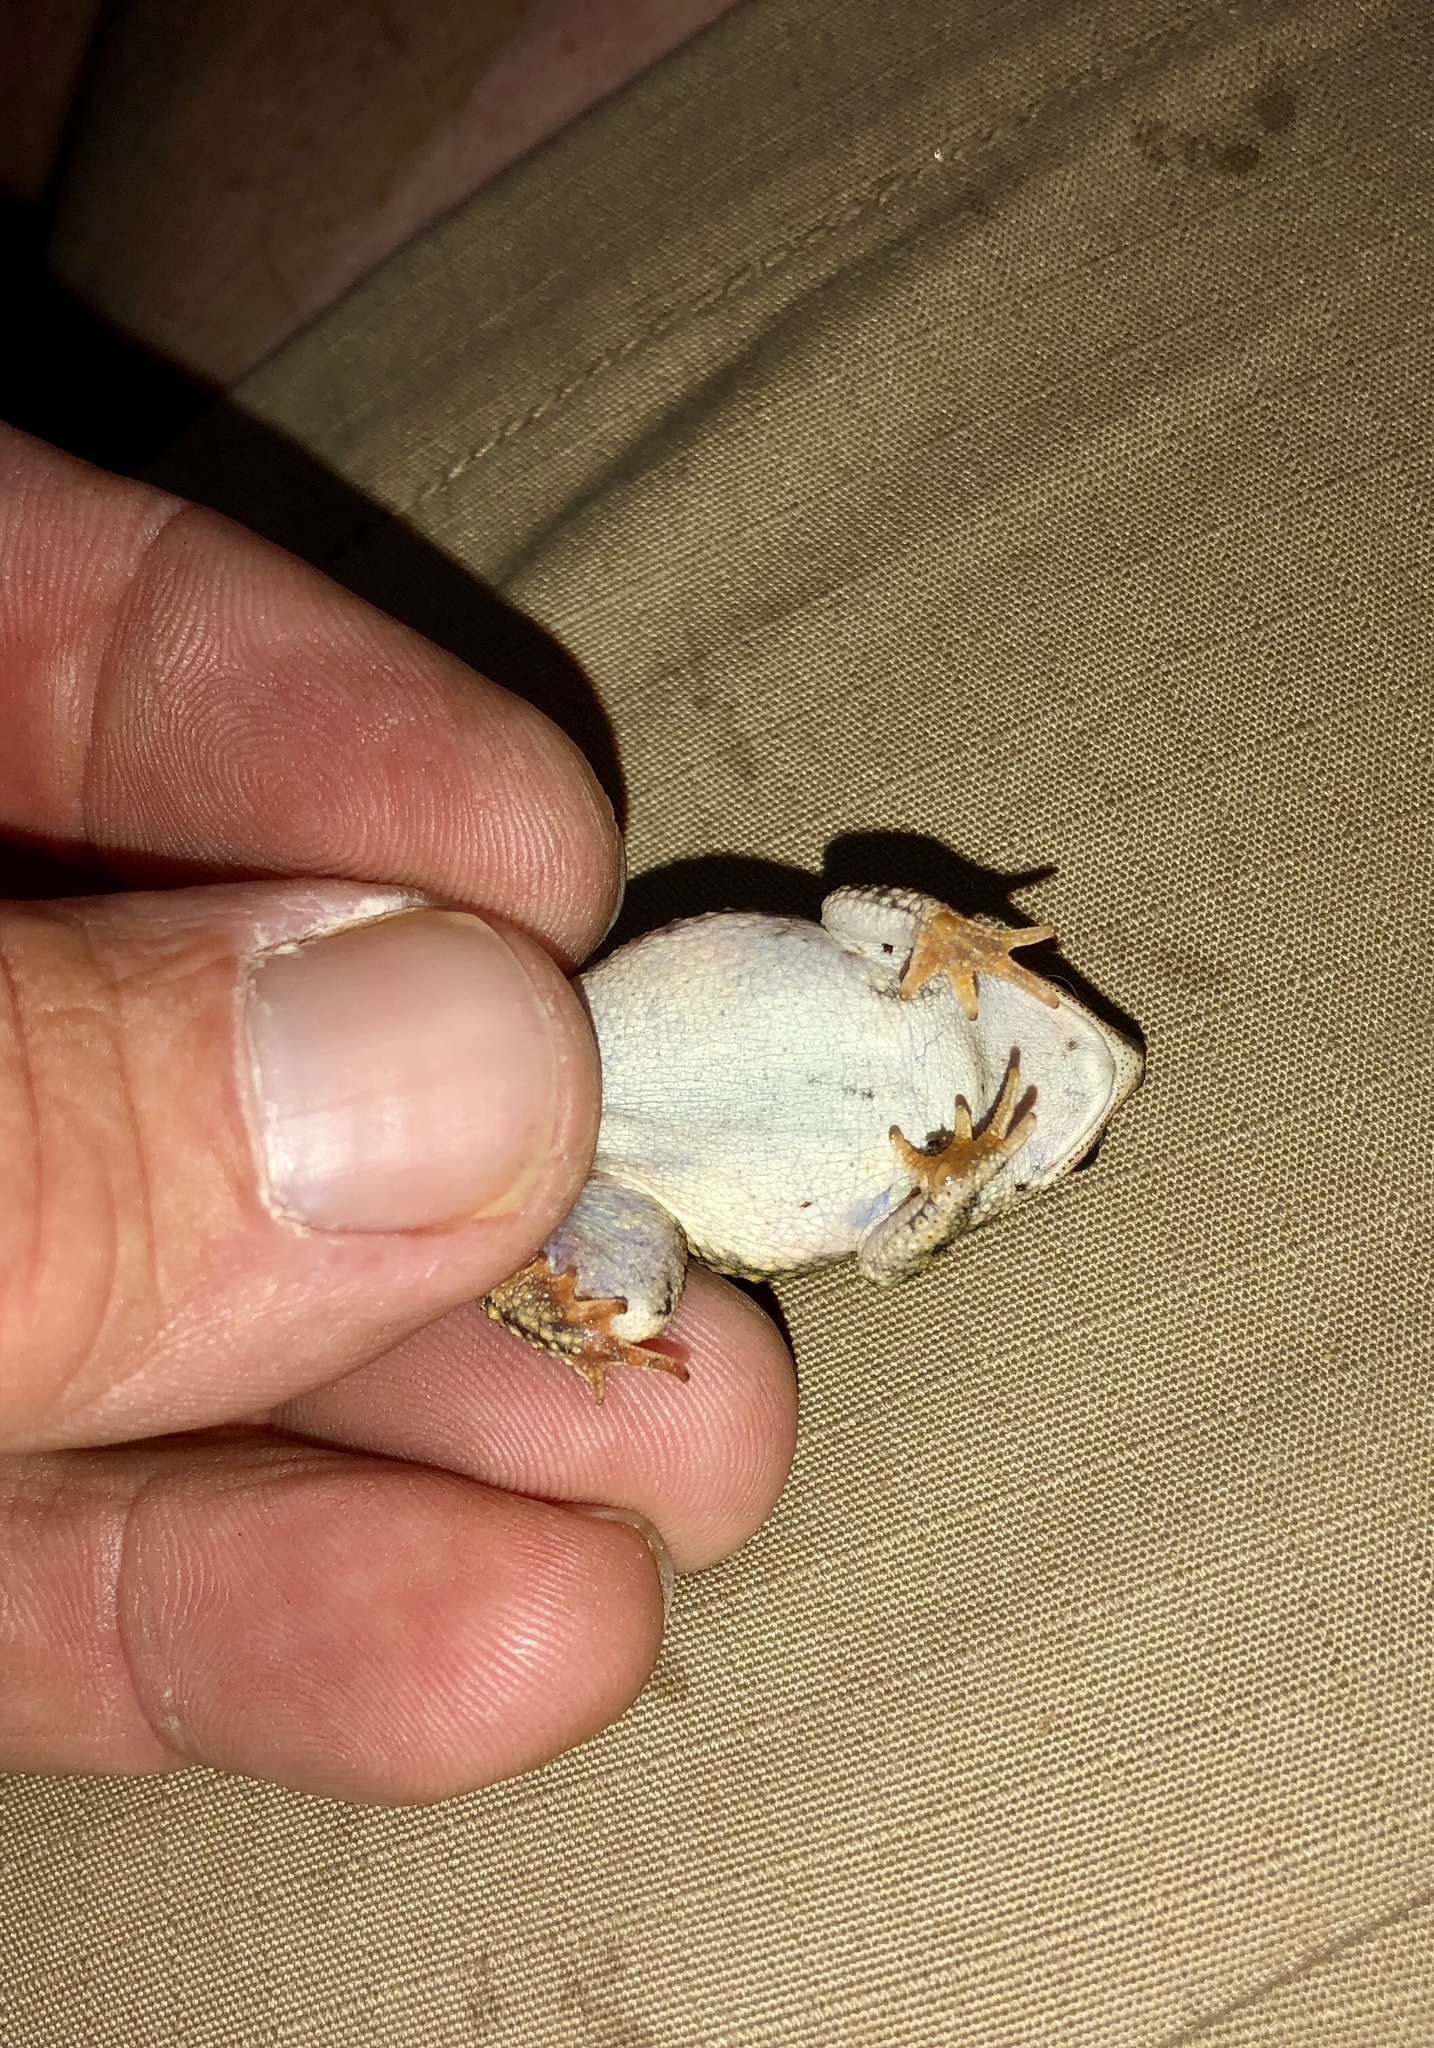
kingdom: Animalia
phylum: Chordata
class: Amphibia
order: Anura
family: Bufonidae
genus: Anaxyrus
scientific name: Anaxyrus debilis
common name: Green toad
